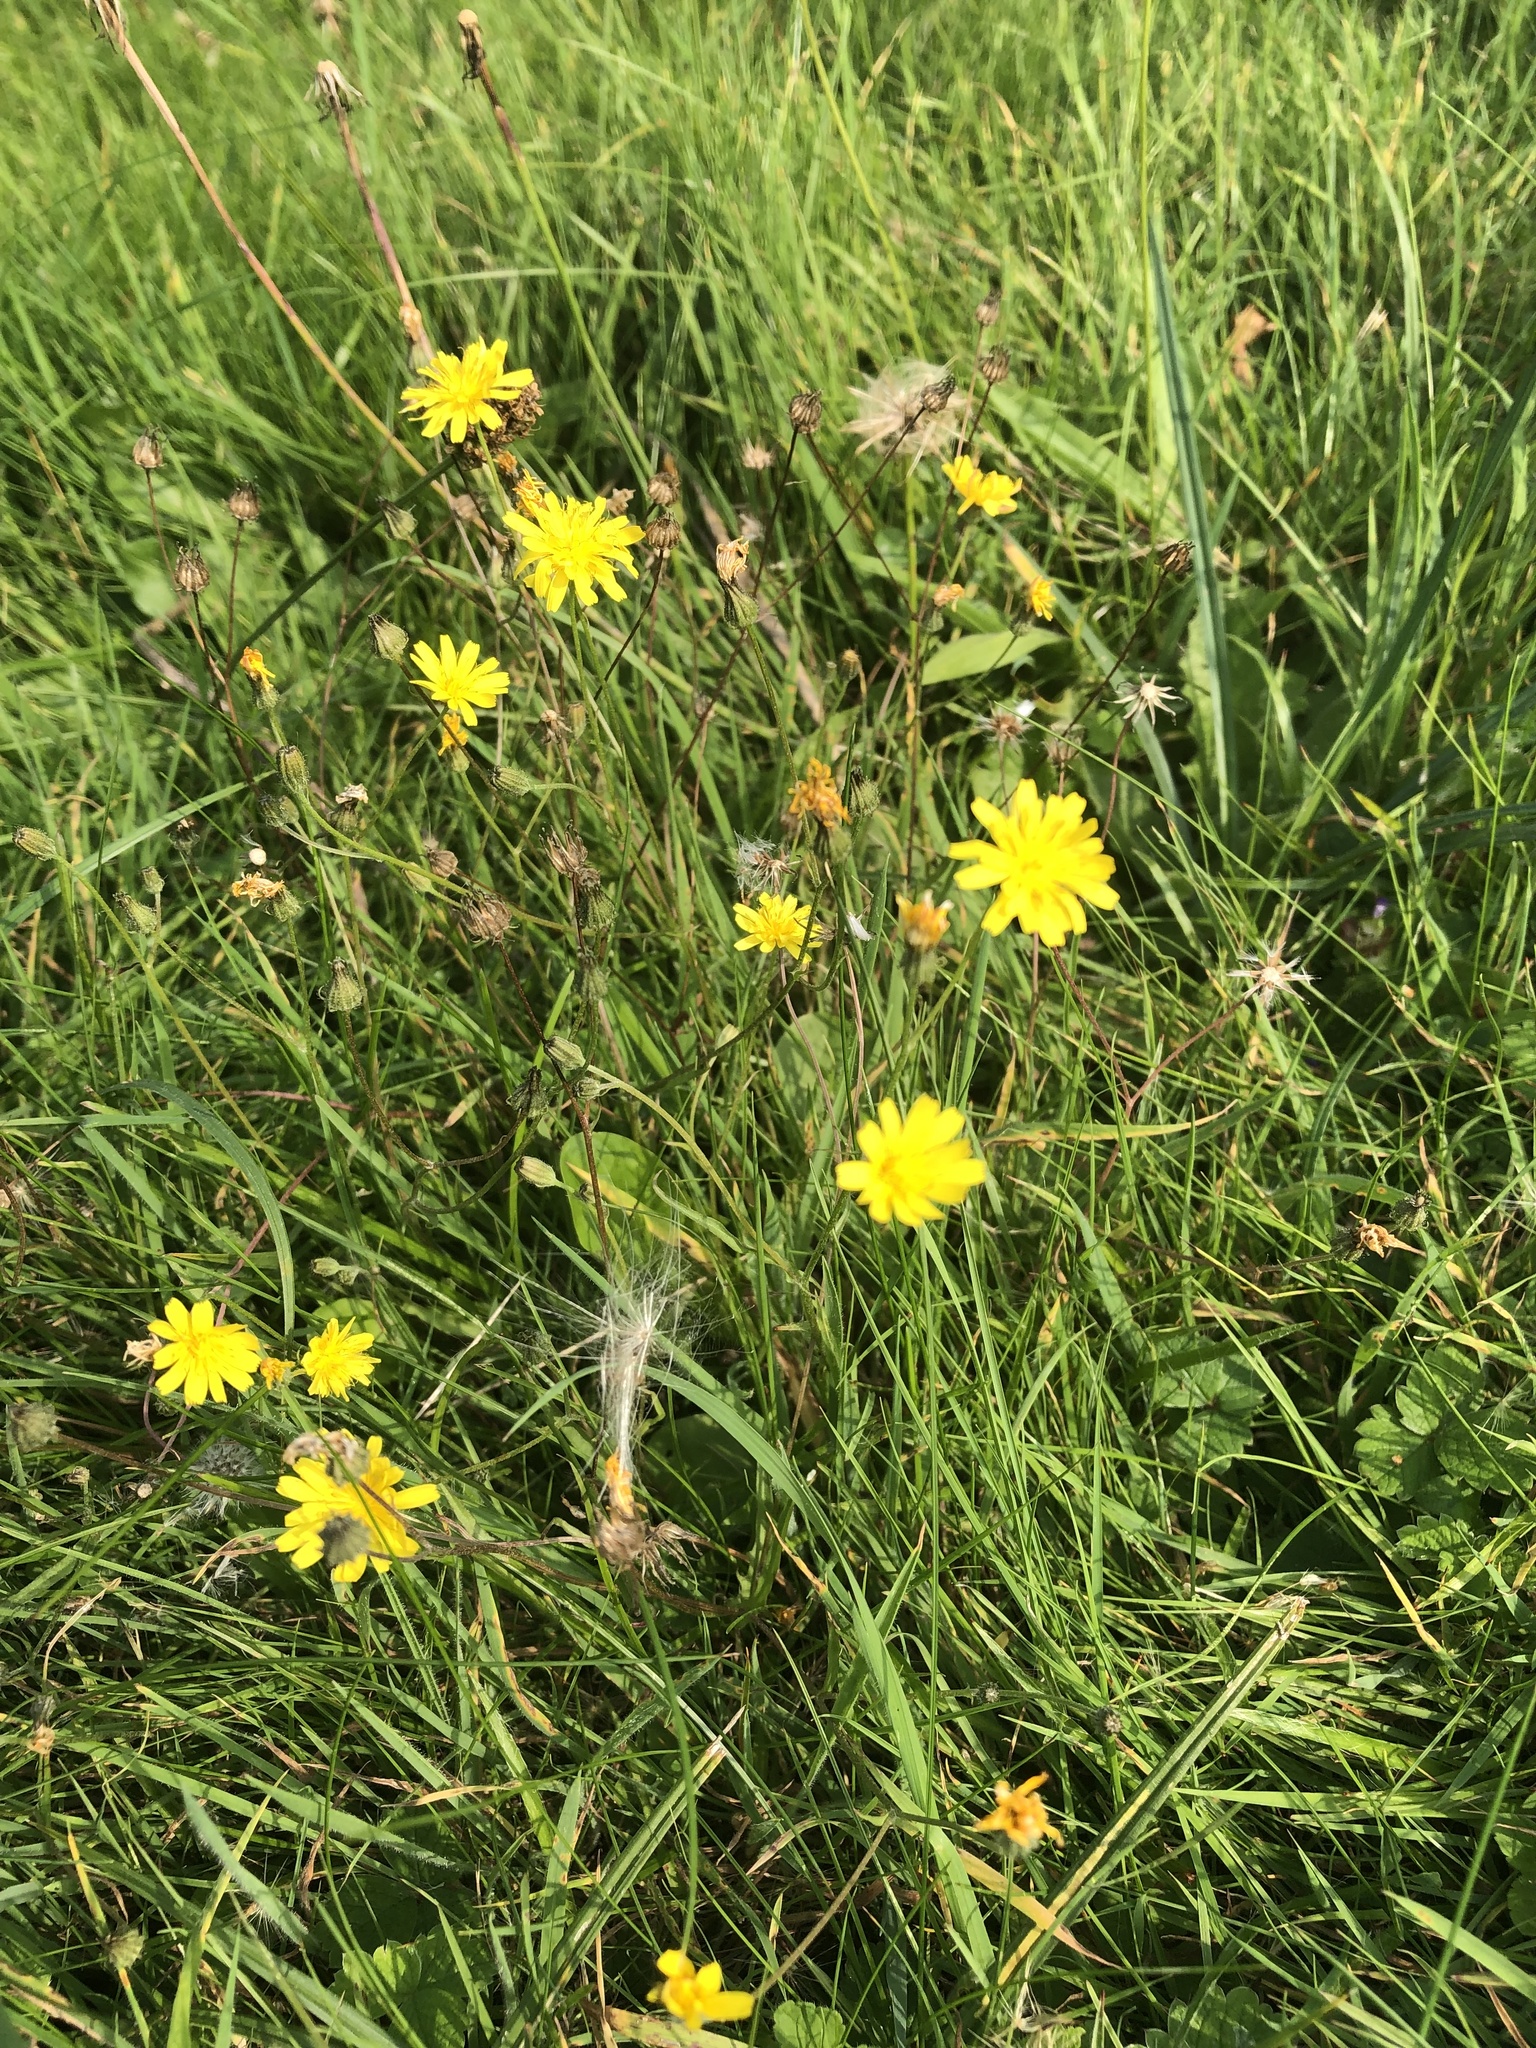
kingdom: Plantae
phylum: Tracheophyta
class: Magnoliopsida
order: Asterales
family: Asteraceae
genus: Crepis
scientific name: Crepis capillaris
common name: Smooth hawksbeard
